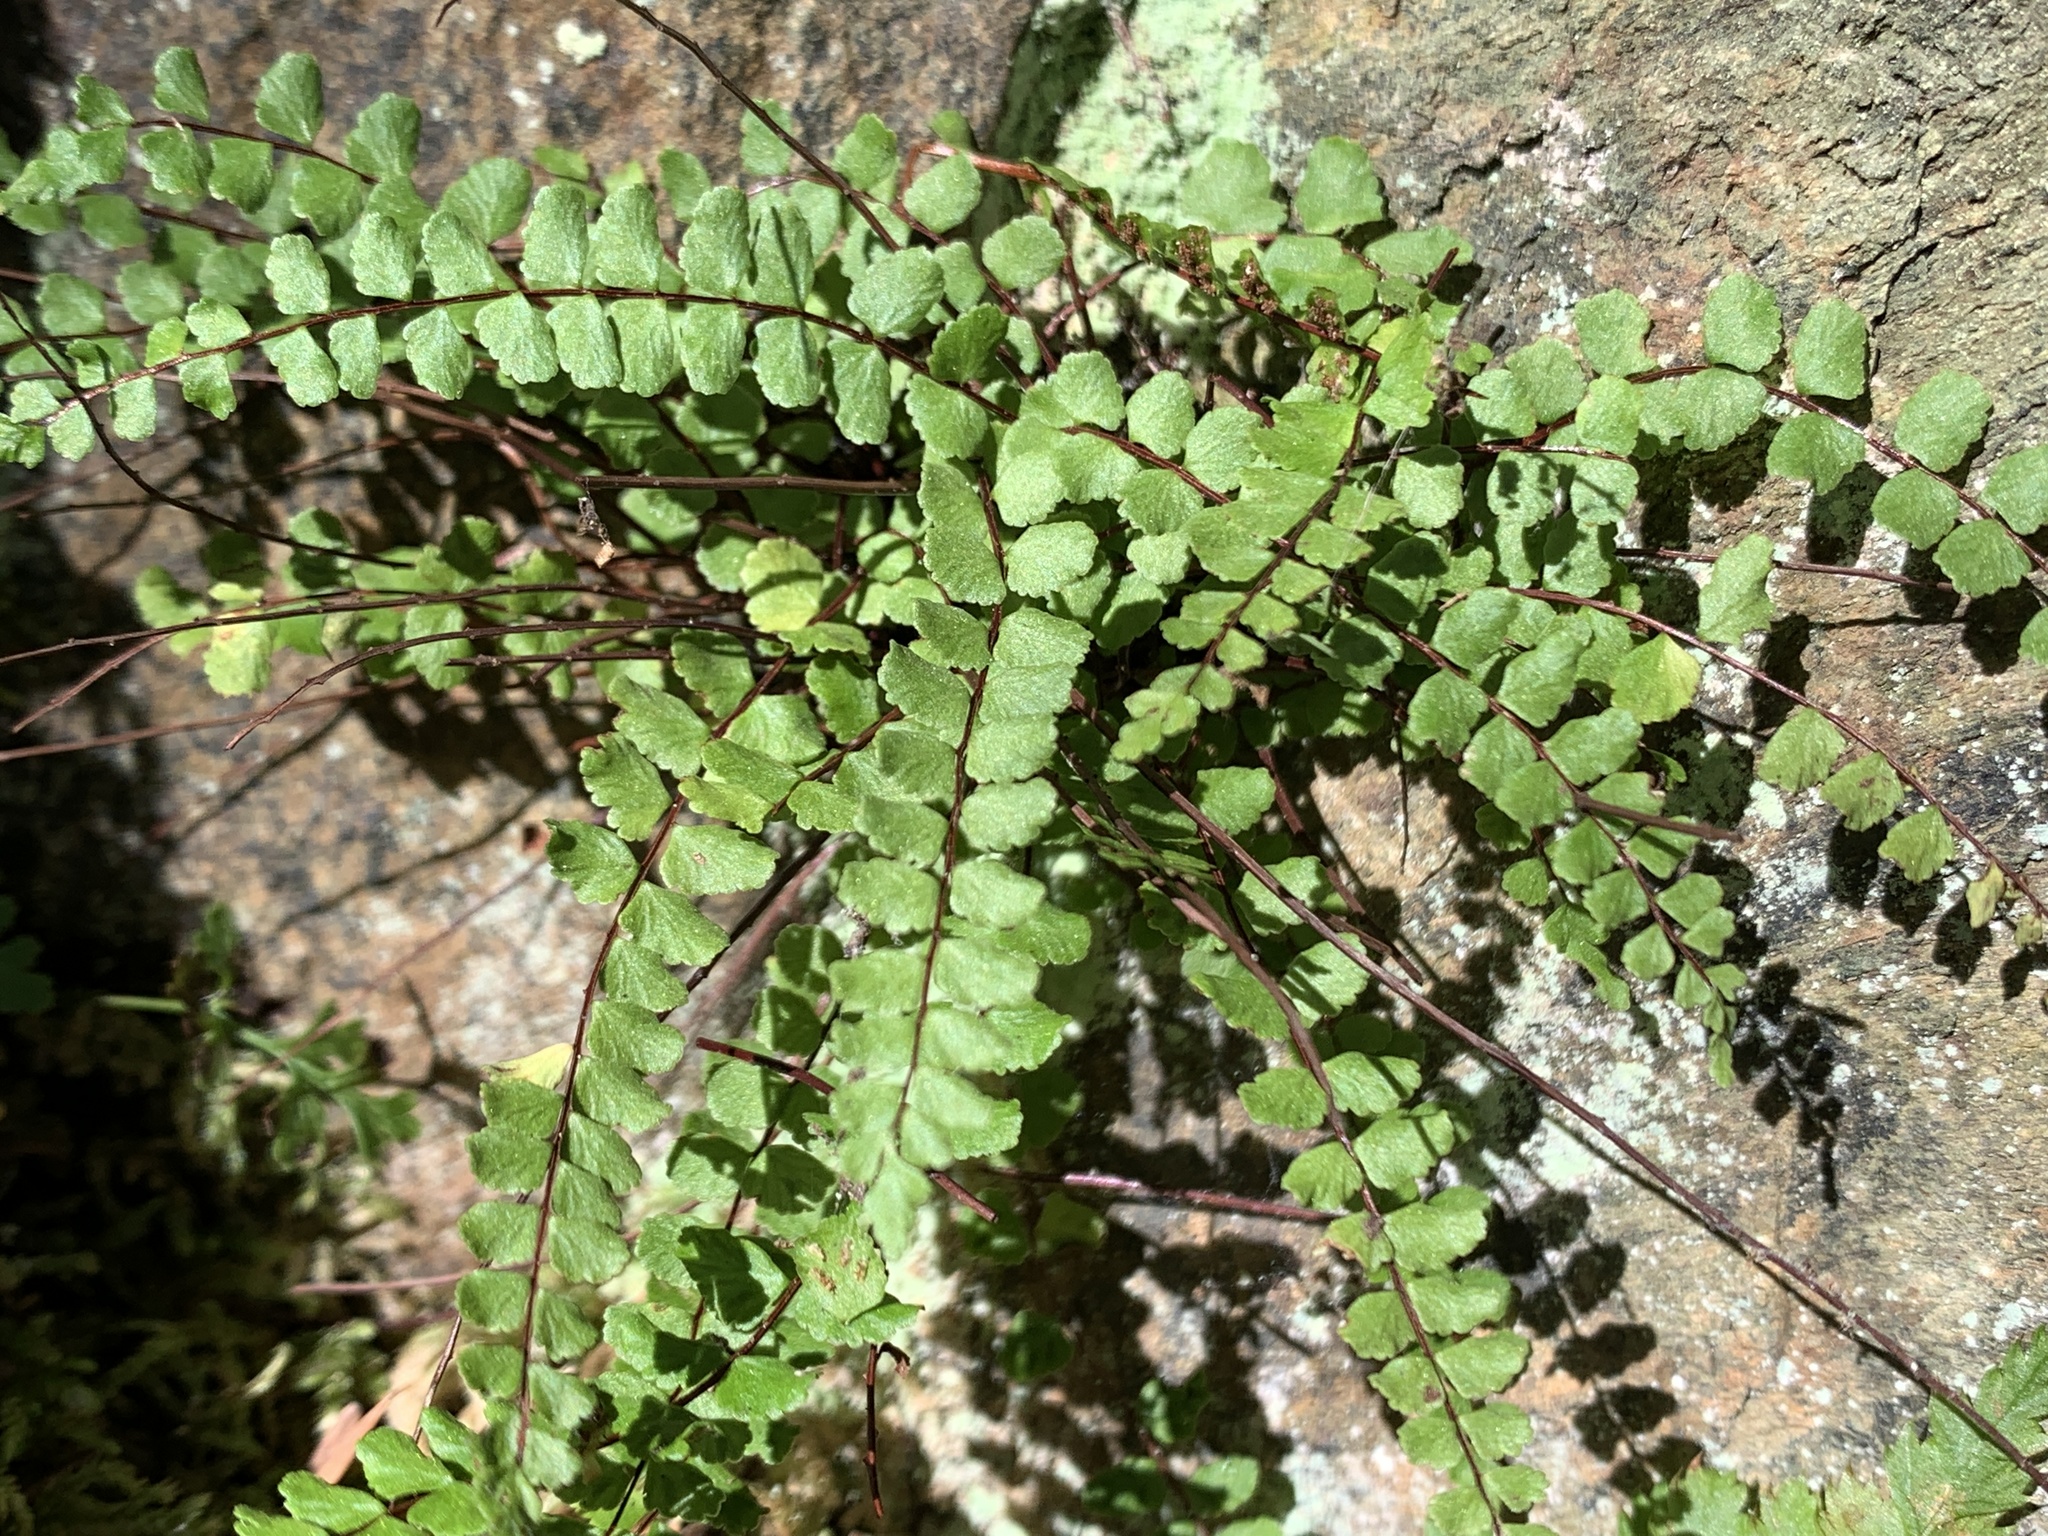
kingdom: Plantae
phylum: Tracheophyta
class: Polypodiopsida
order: Polypodiales
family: Aspleniaceae
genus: Asplenium
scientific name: Asplenium trichomanes
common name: Maidenhair spleenwort
